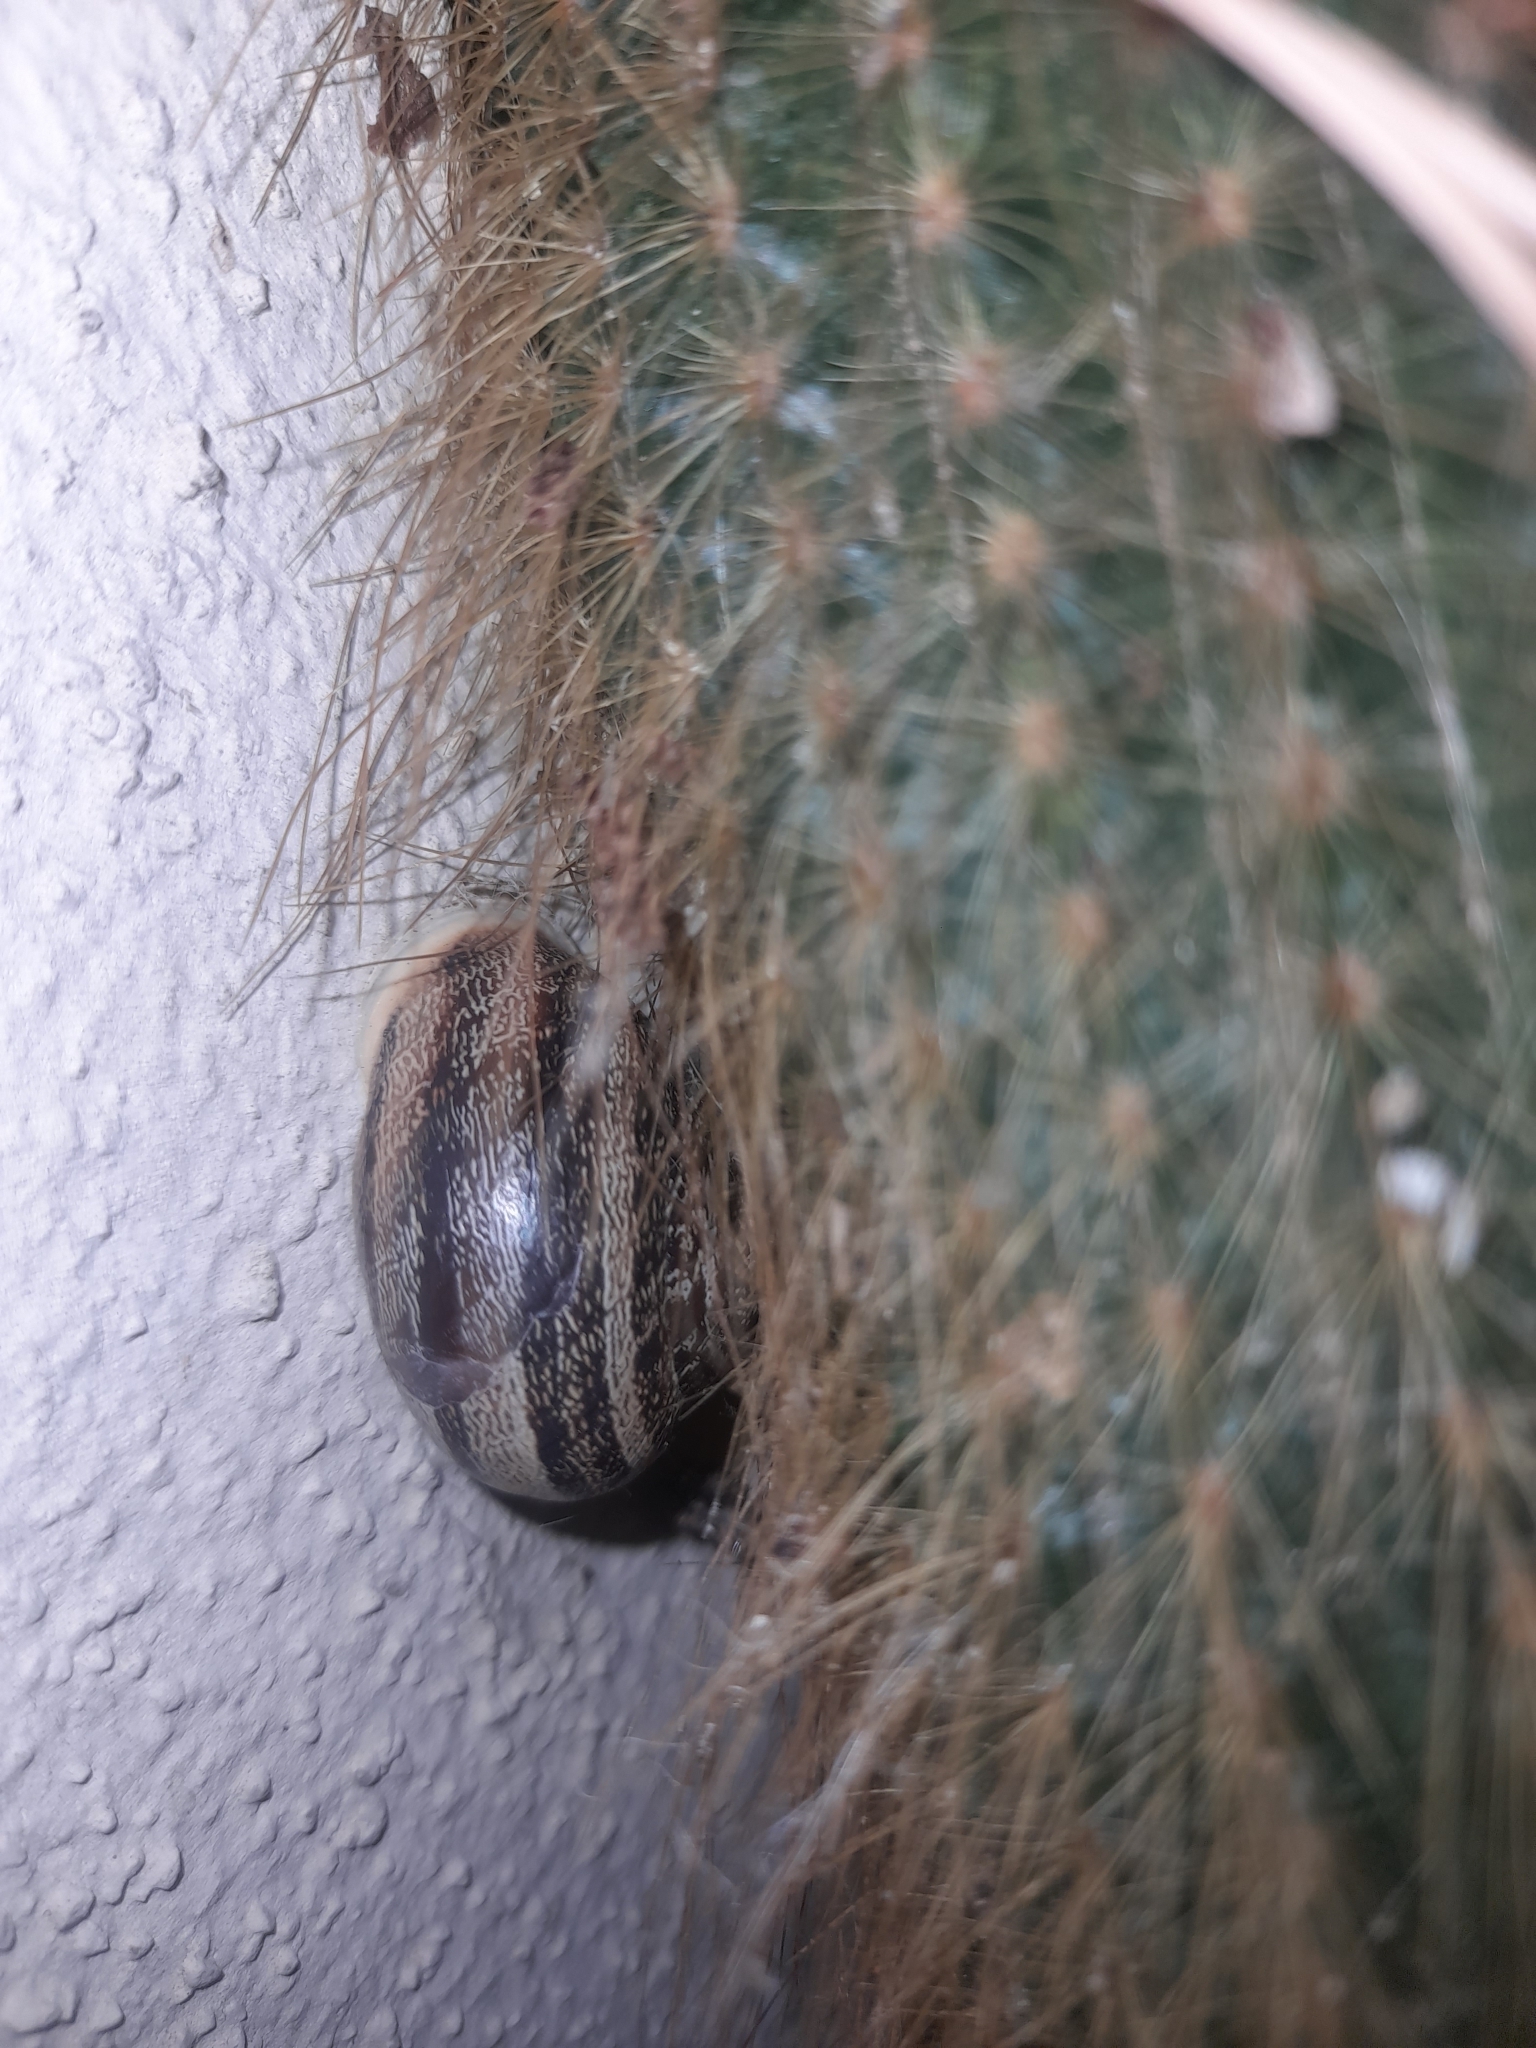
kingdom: Animalia
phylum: Mollusca
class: Gastropoda
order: Stylommatophora
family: Helicidae
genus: Eobania
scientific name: Eobania vermiculata
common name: Chocolateband snail
